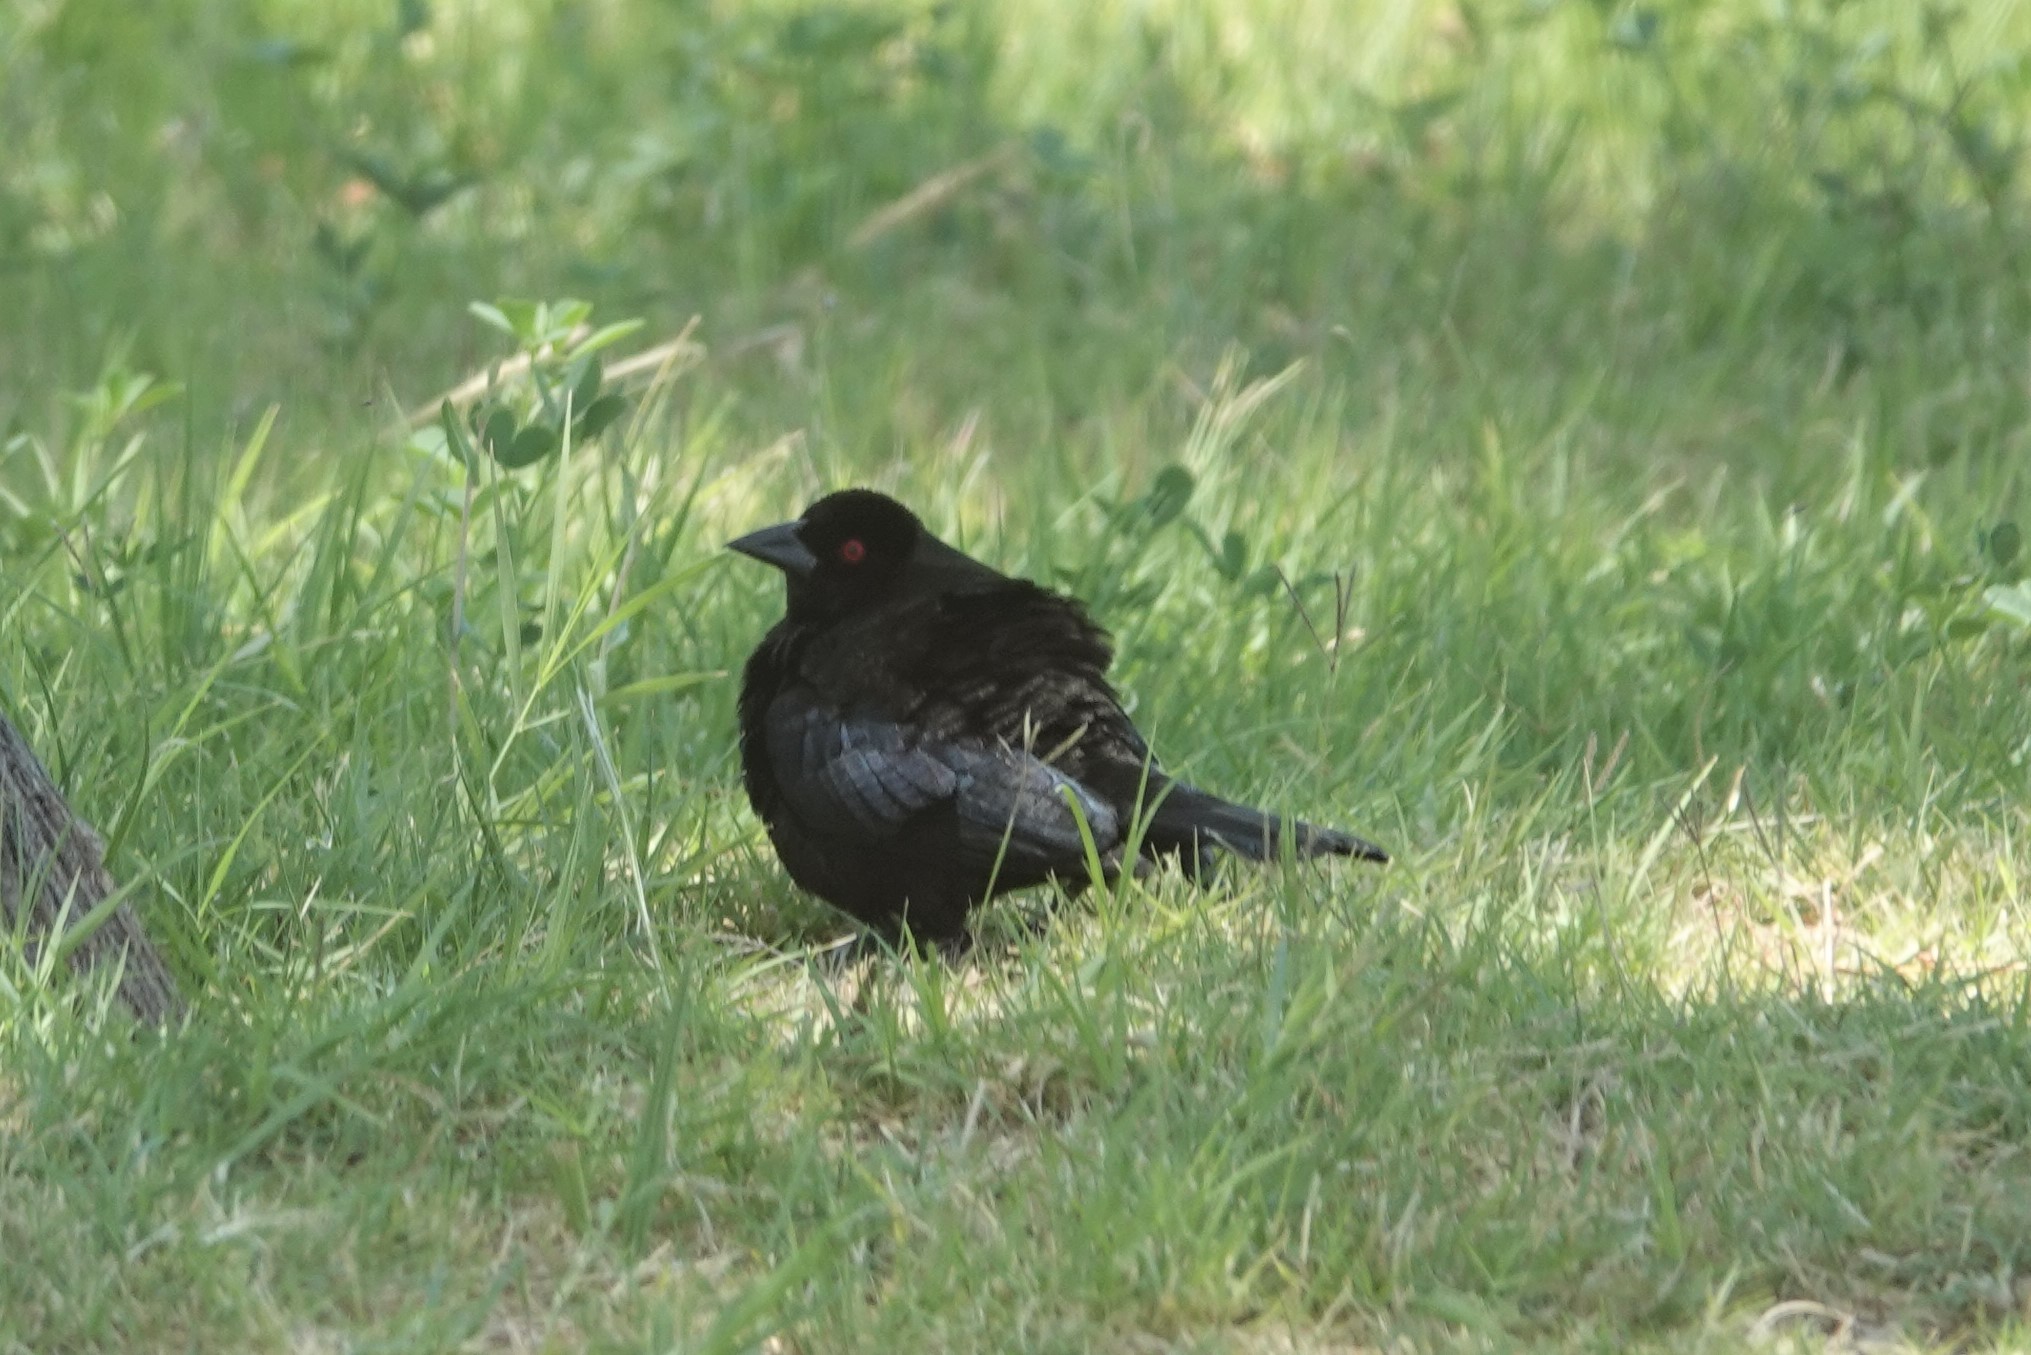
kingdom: Animalia
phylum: Chordata
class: Aves
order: Passeriformes
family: Icteridae
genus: Molothrus
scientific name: Molothrus aeneus
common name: Bronzed cowbird
